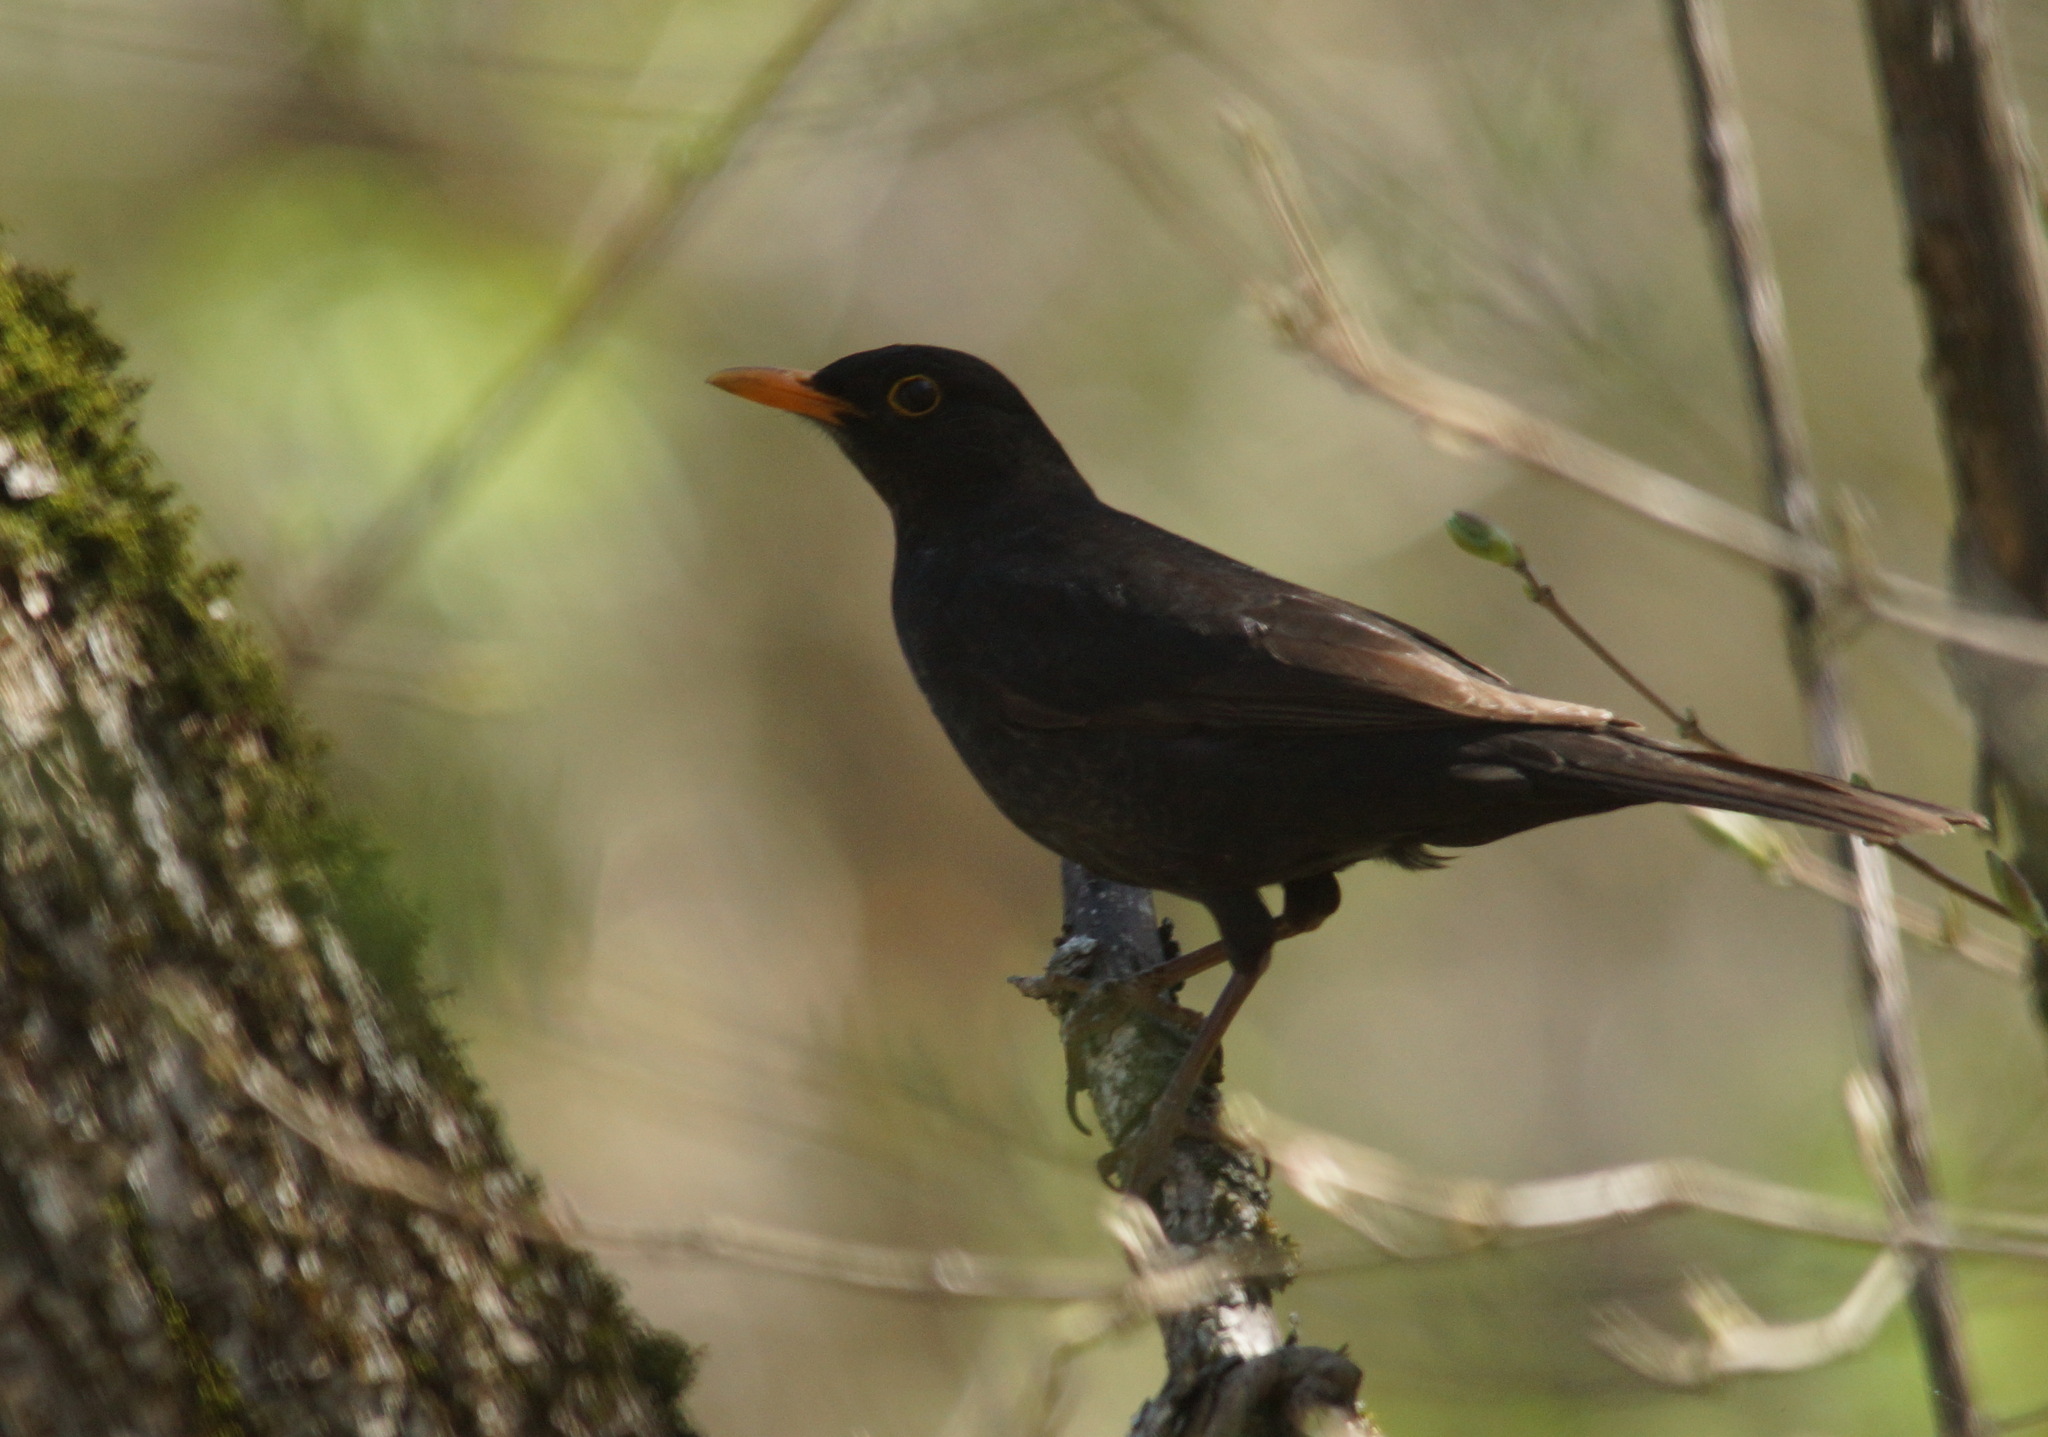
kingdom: Animalia
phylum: Chordata
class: Aves
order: Passeriformes
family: Turdidae
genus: Turdus
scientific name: Turdus merula
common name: Common blackbird
